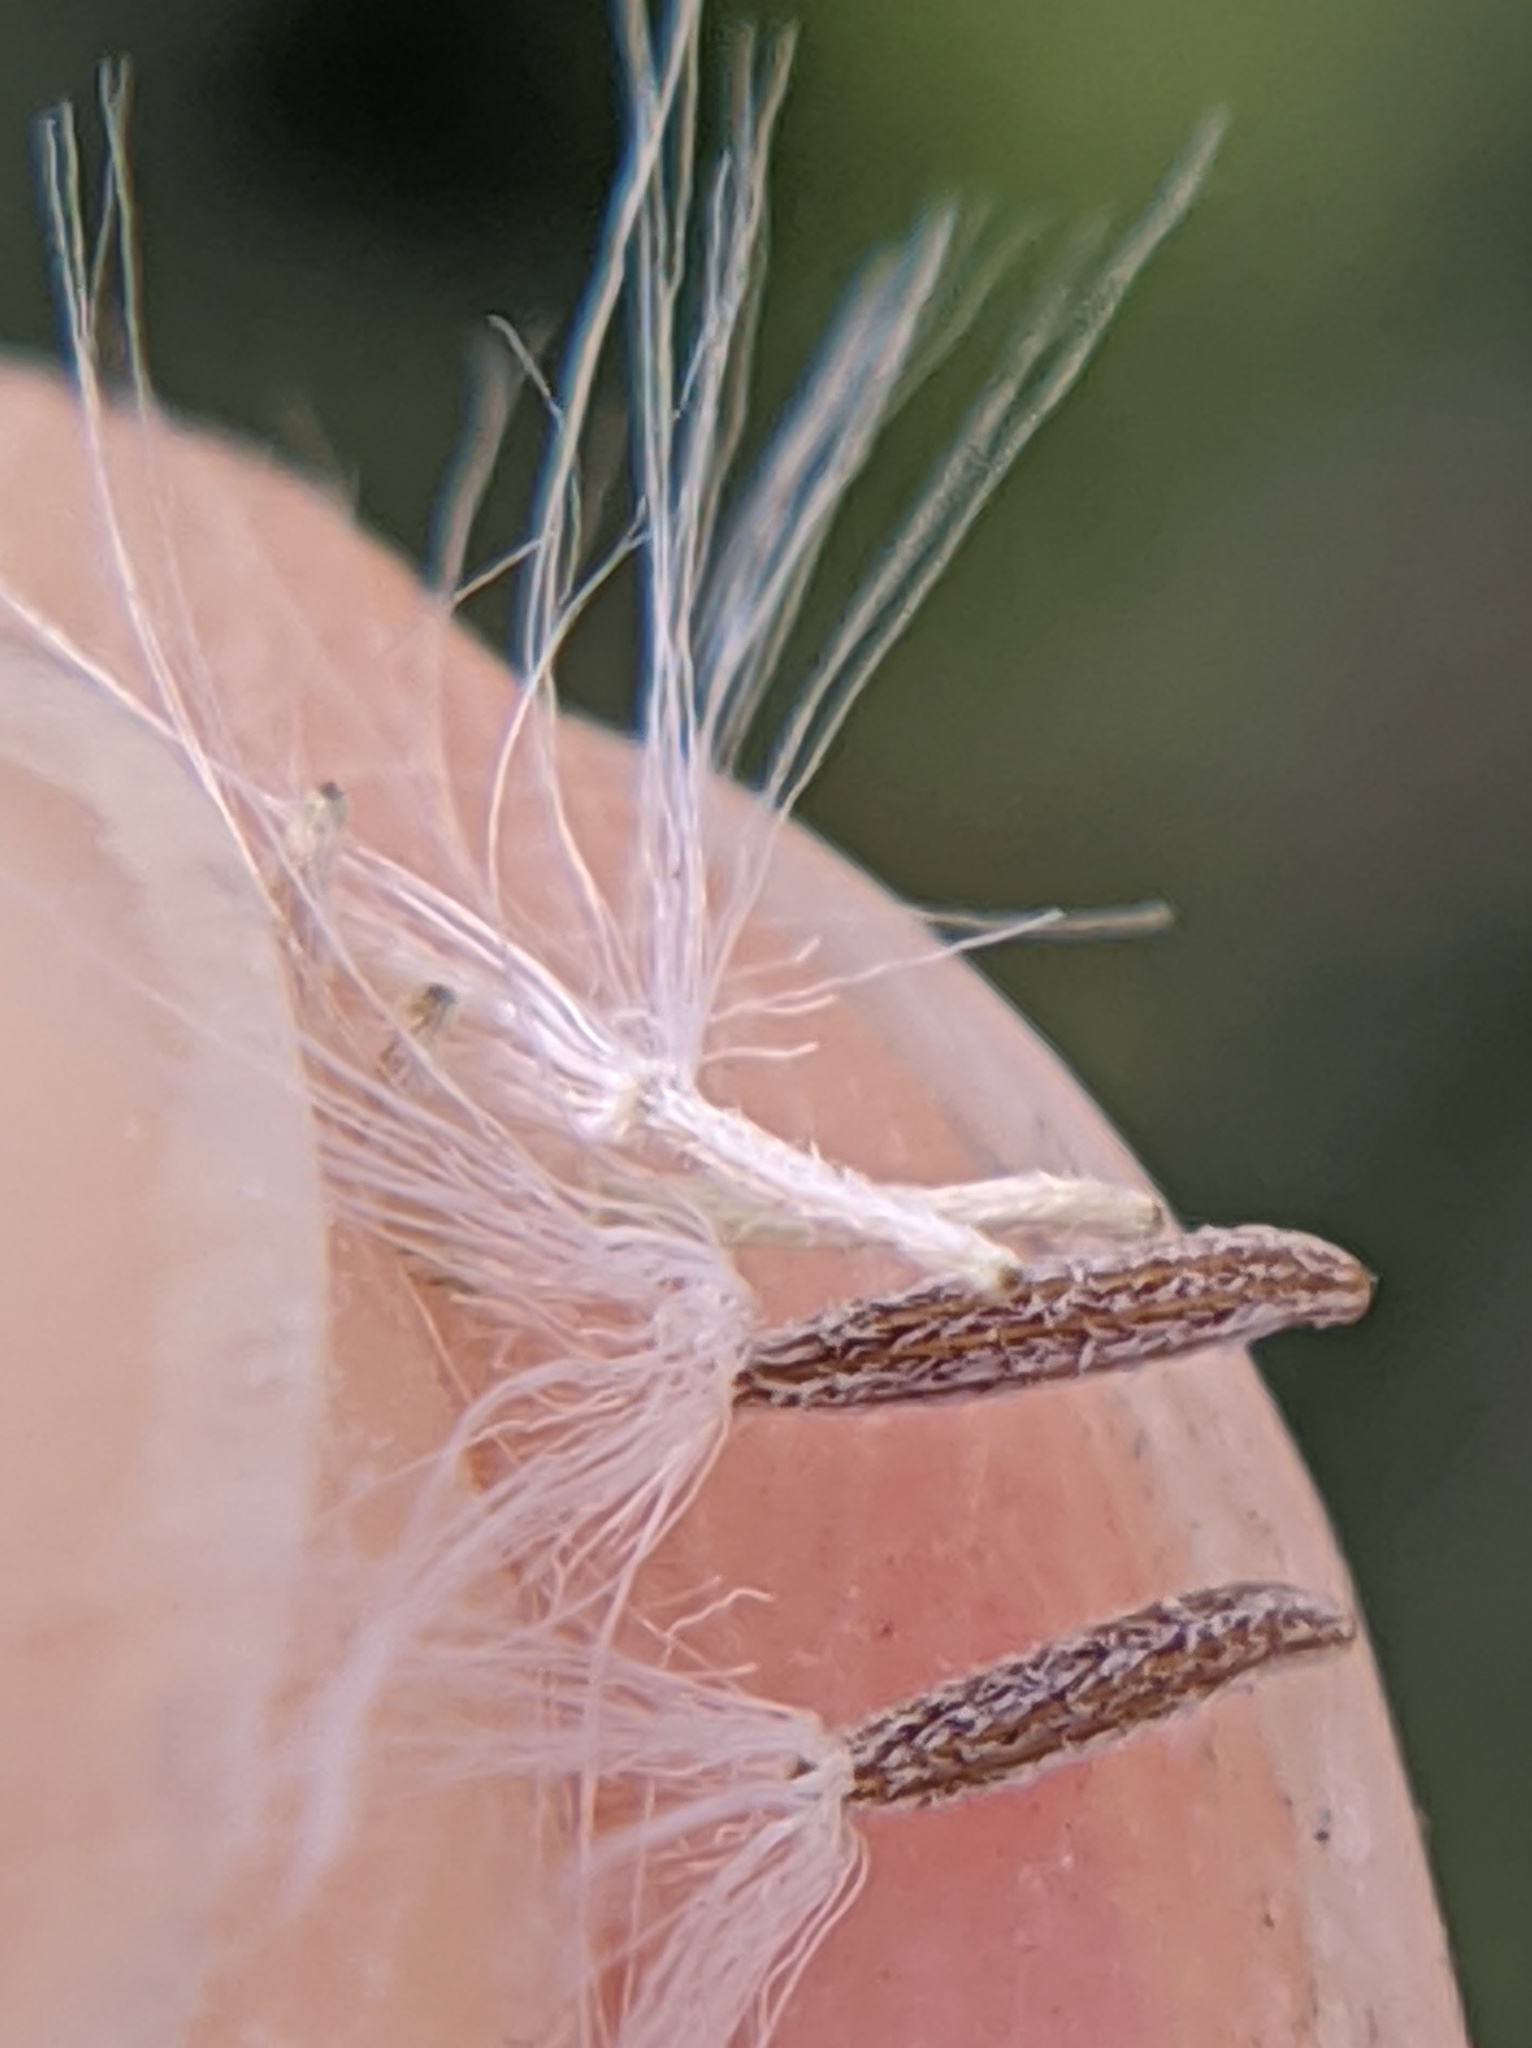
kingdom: Plantae
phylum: Tracheophyta
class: Magnoliopsida
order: Asterales
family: Asteraceae
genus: Senecio
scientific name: Senecio vulgaris
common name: Old-man-in-the-spring
